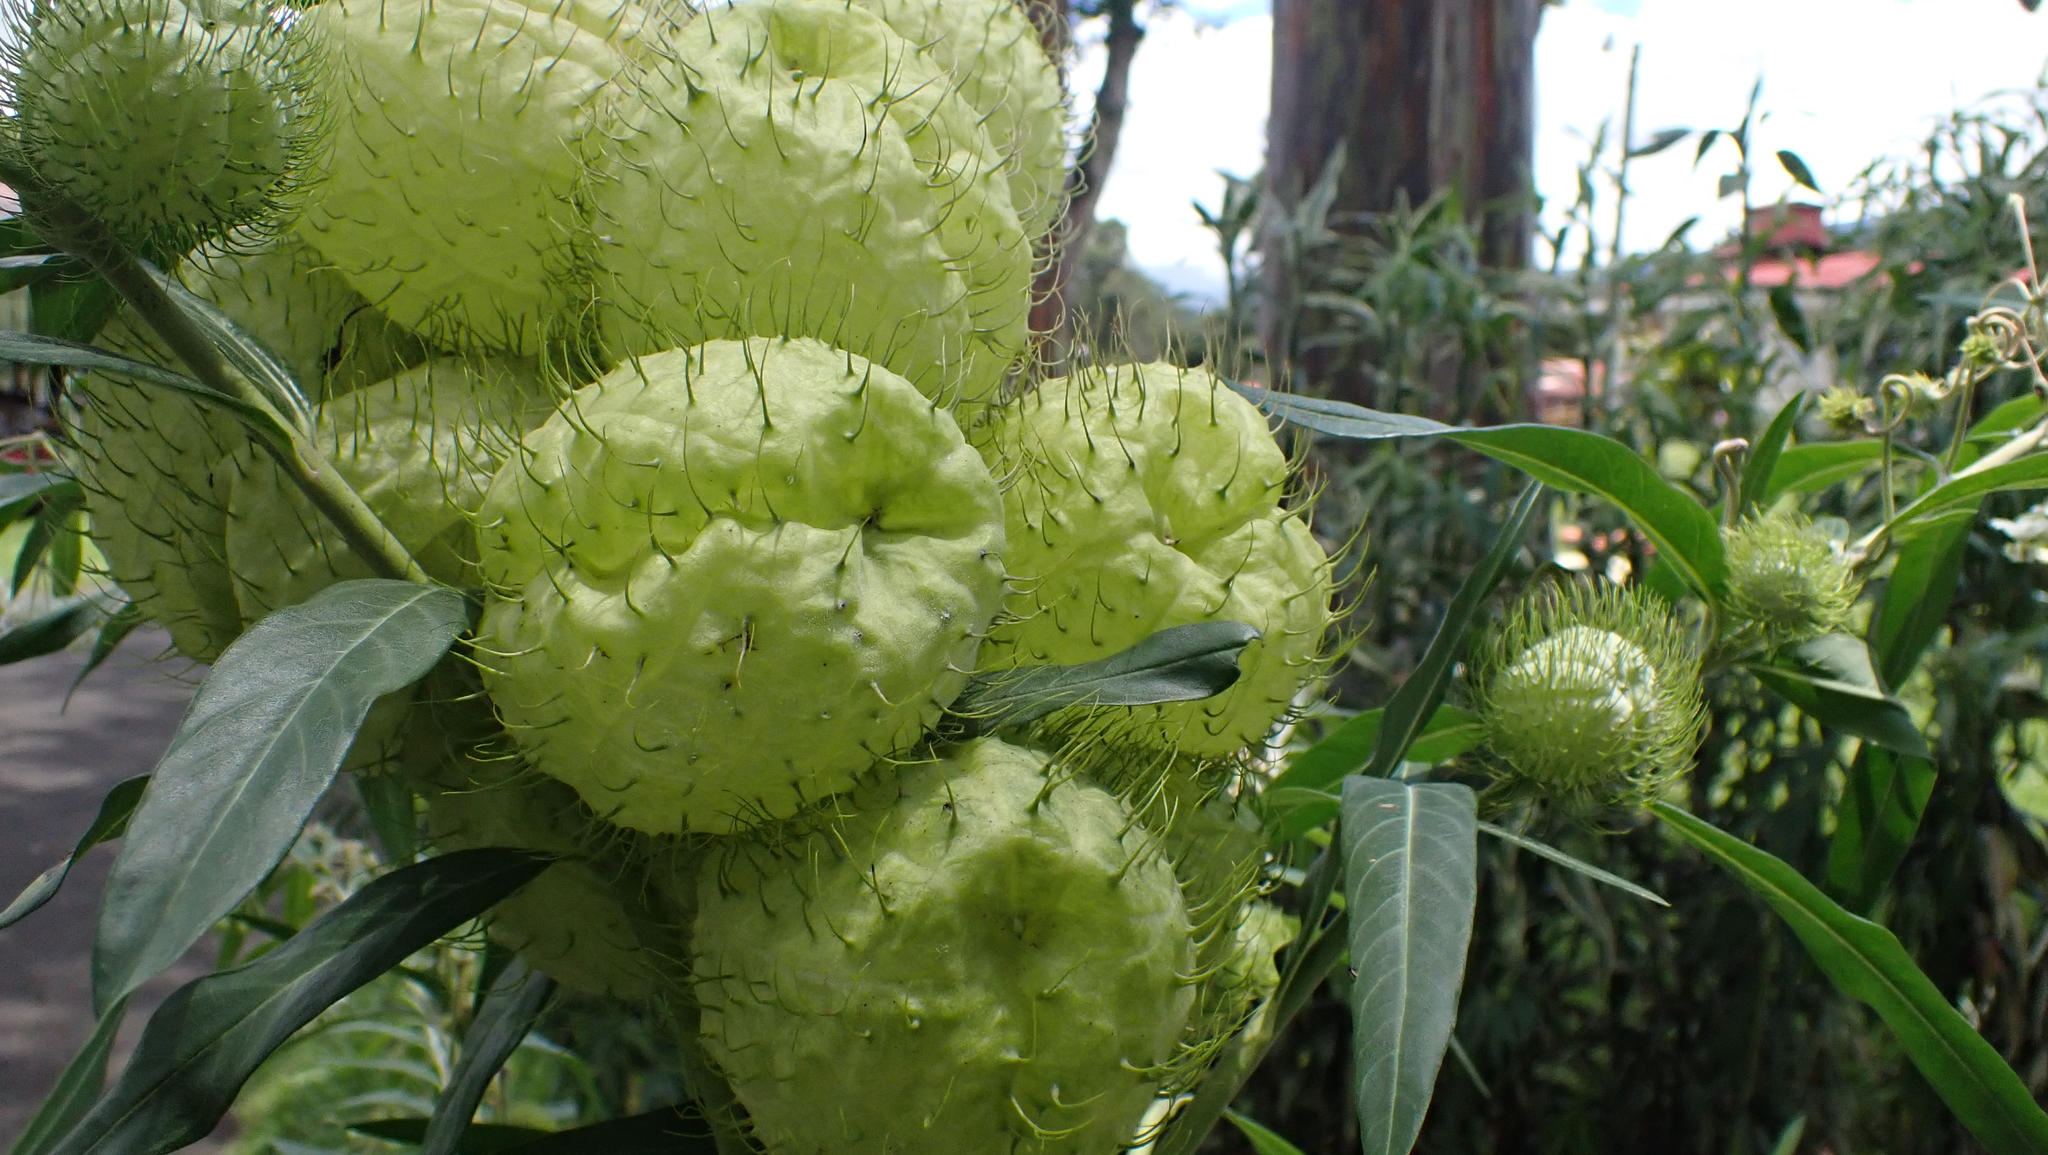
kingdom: Plantae
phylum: Tracheophyta
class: Magnoliopsida
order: Gentianales
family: Apocynaceae
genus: Gomphocarpus
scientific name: Gomphocarpus physocarpus
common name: Balloon cotton bush
